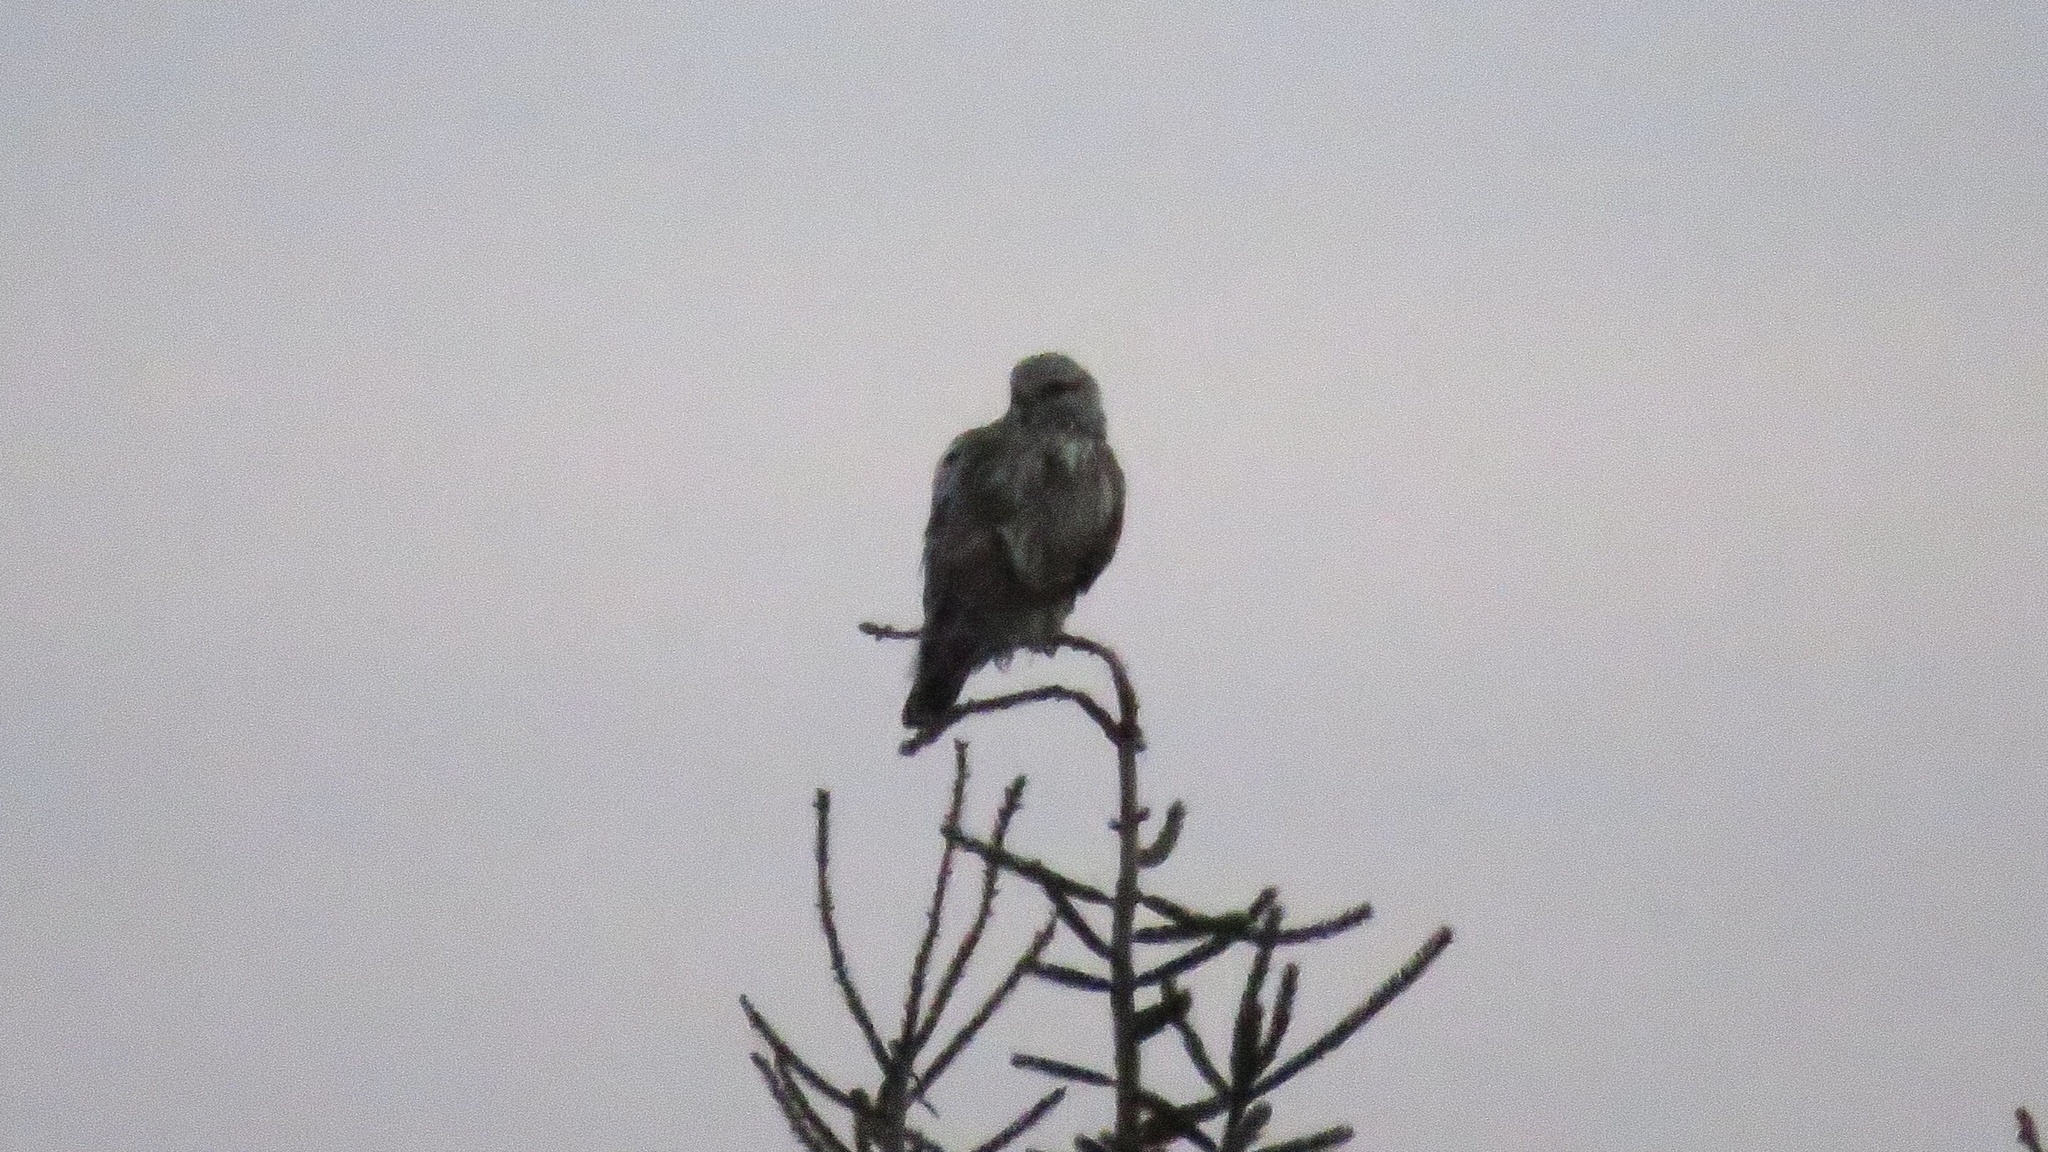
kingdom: Animalia
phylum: Chordata
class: Aves
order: Accipitriformes
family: Accipitridae
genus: Buteo
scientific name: Buteo lagopus
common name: Rough-legged buzzard
